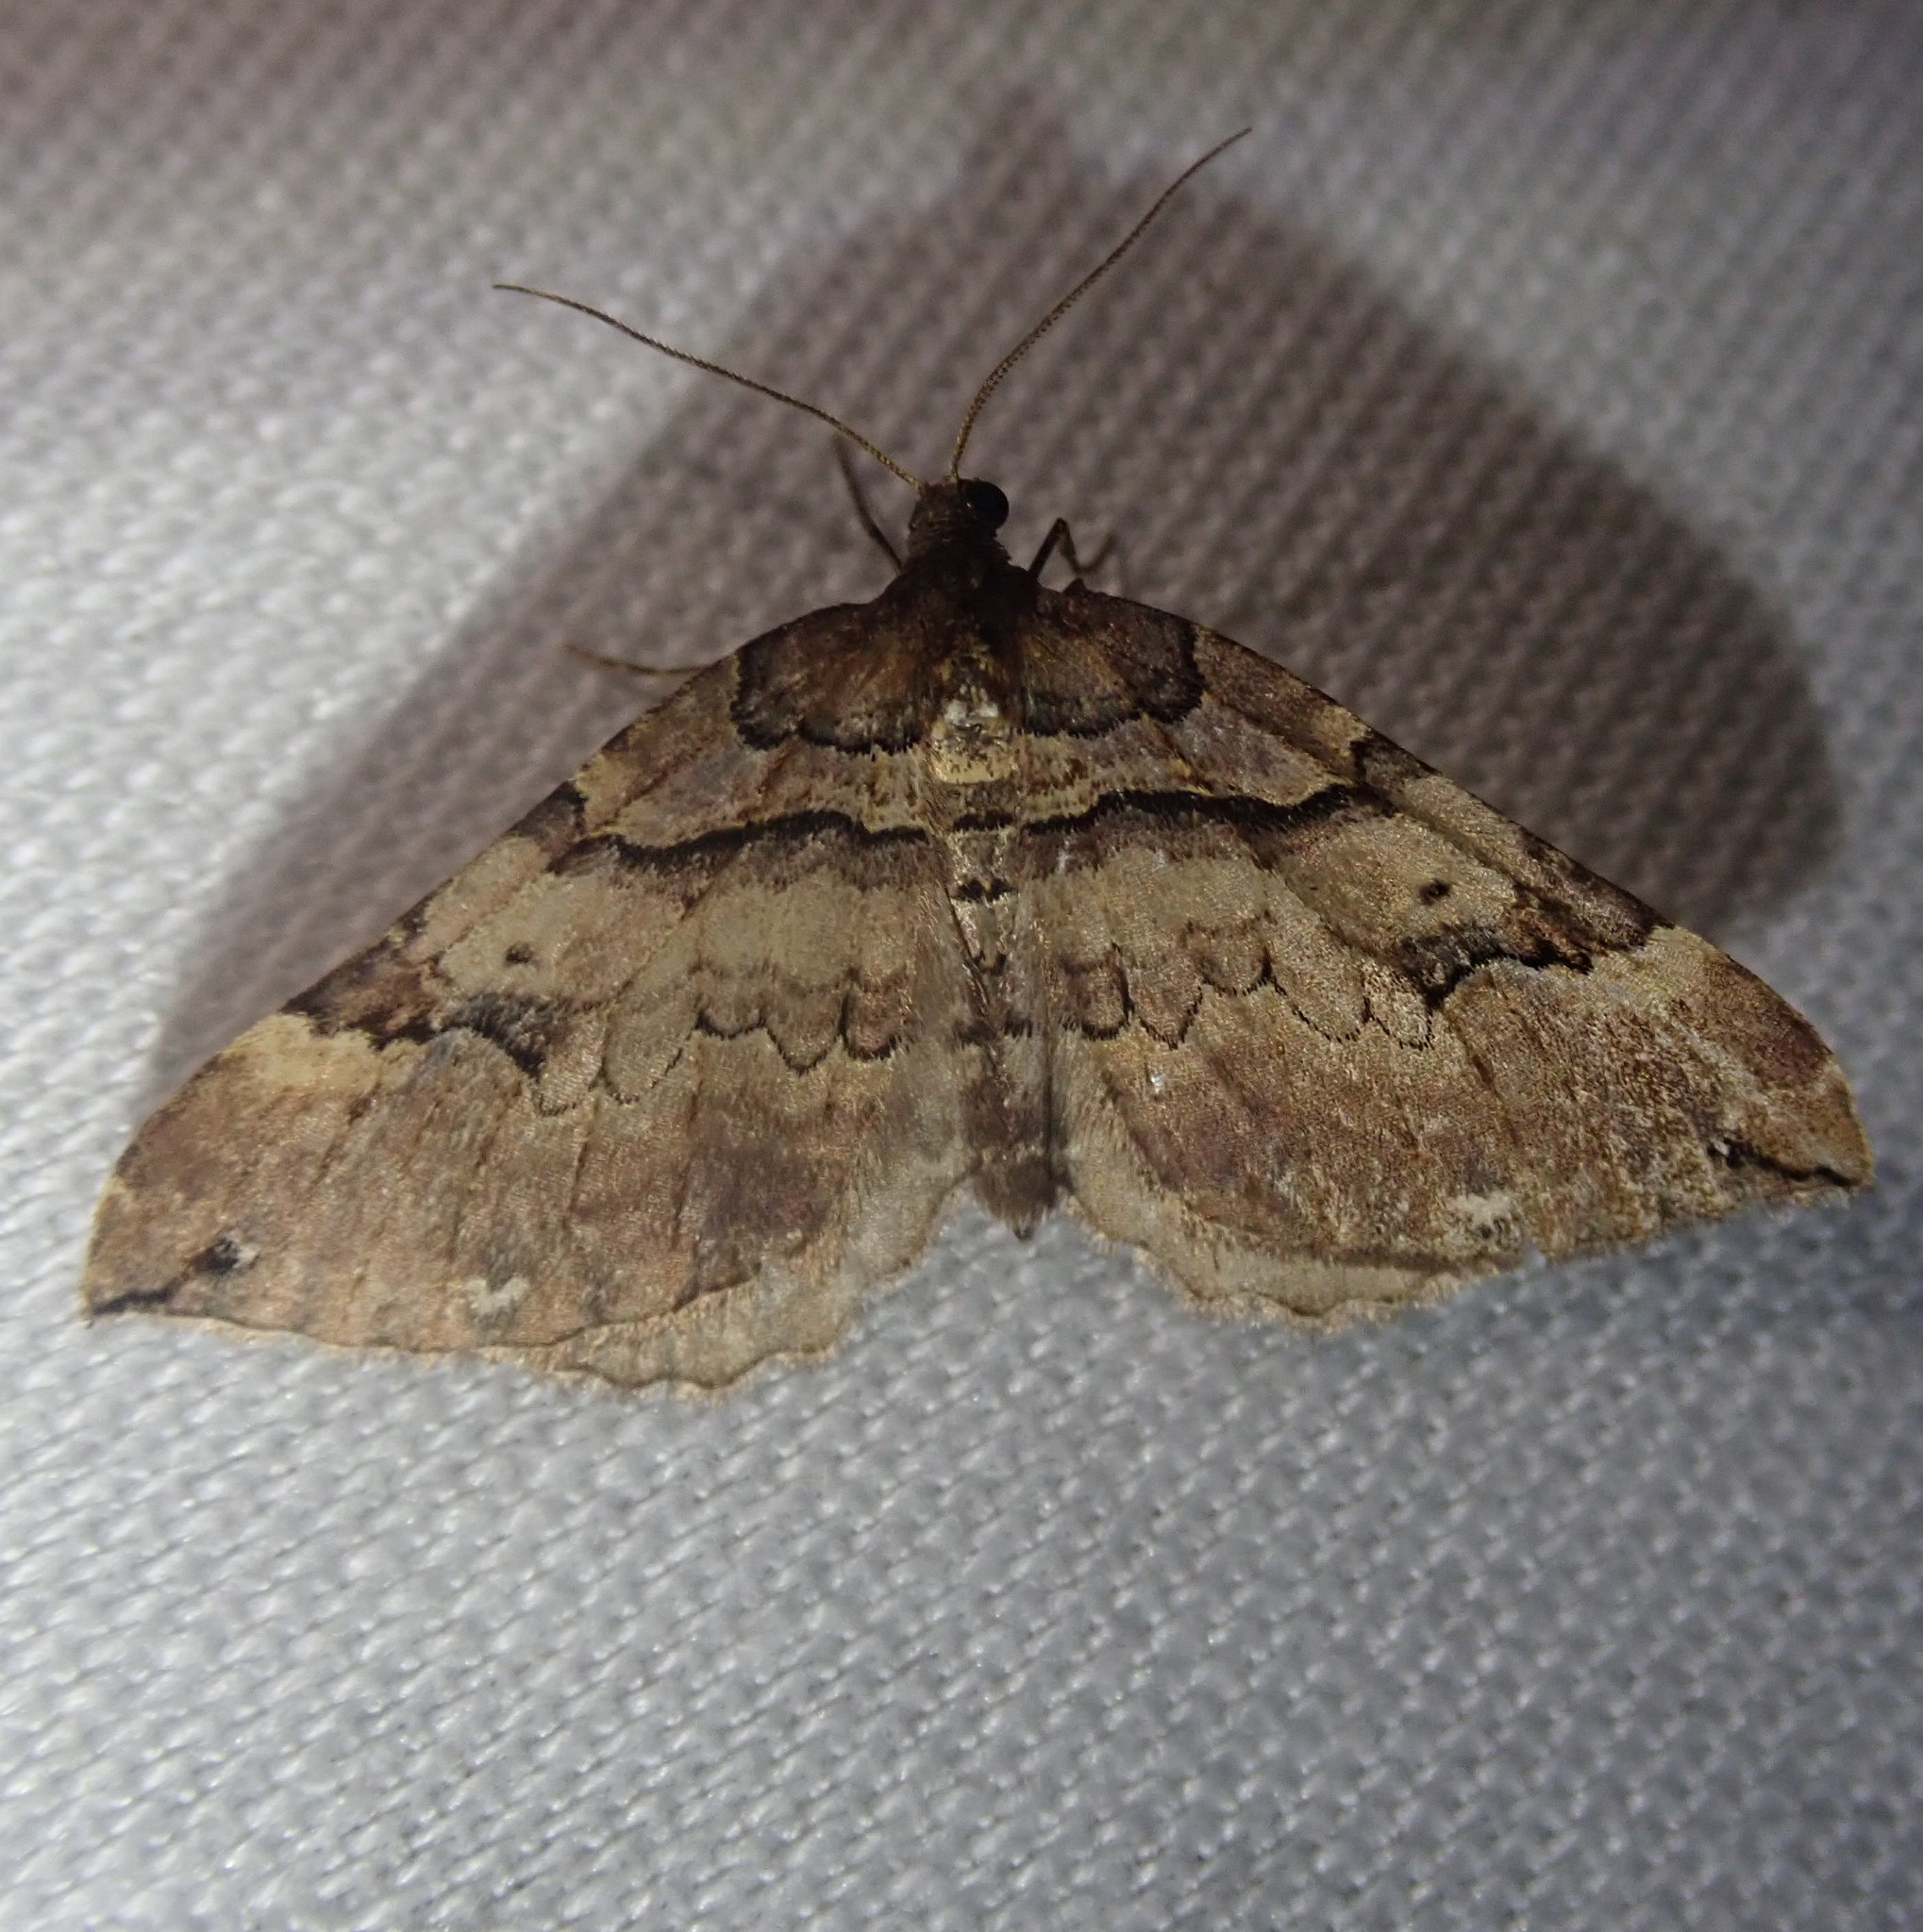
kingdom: Animalia
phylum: Arthropoda
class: Insecta
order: Lepidoptera
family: Geometridae
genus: Anticlea
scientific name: Anticlea badiata
